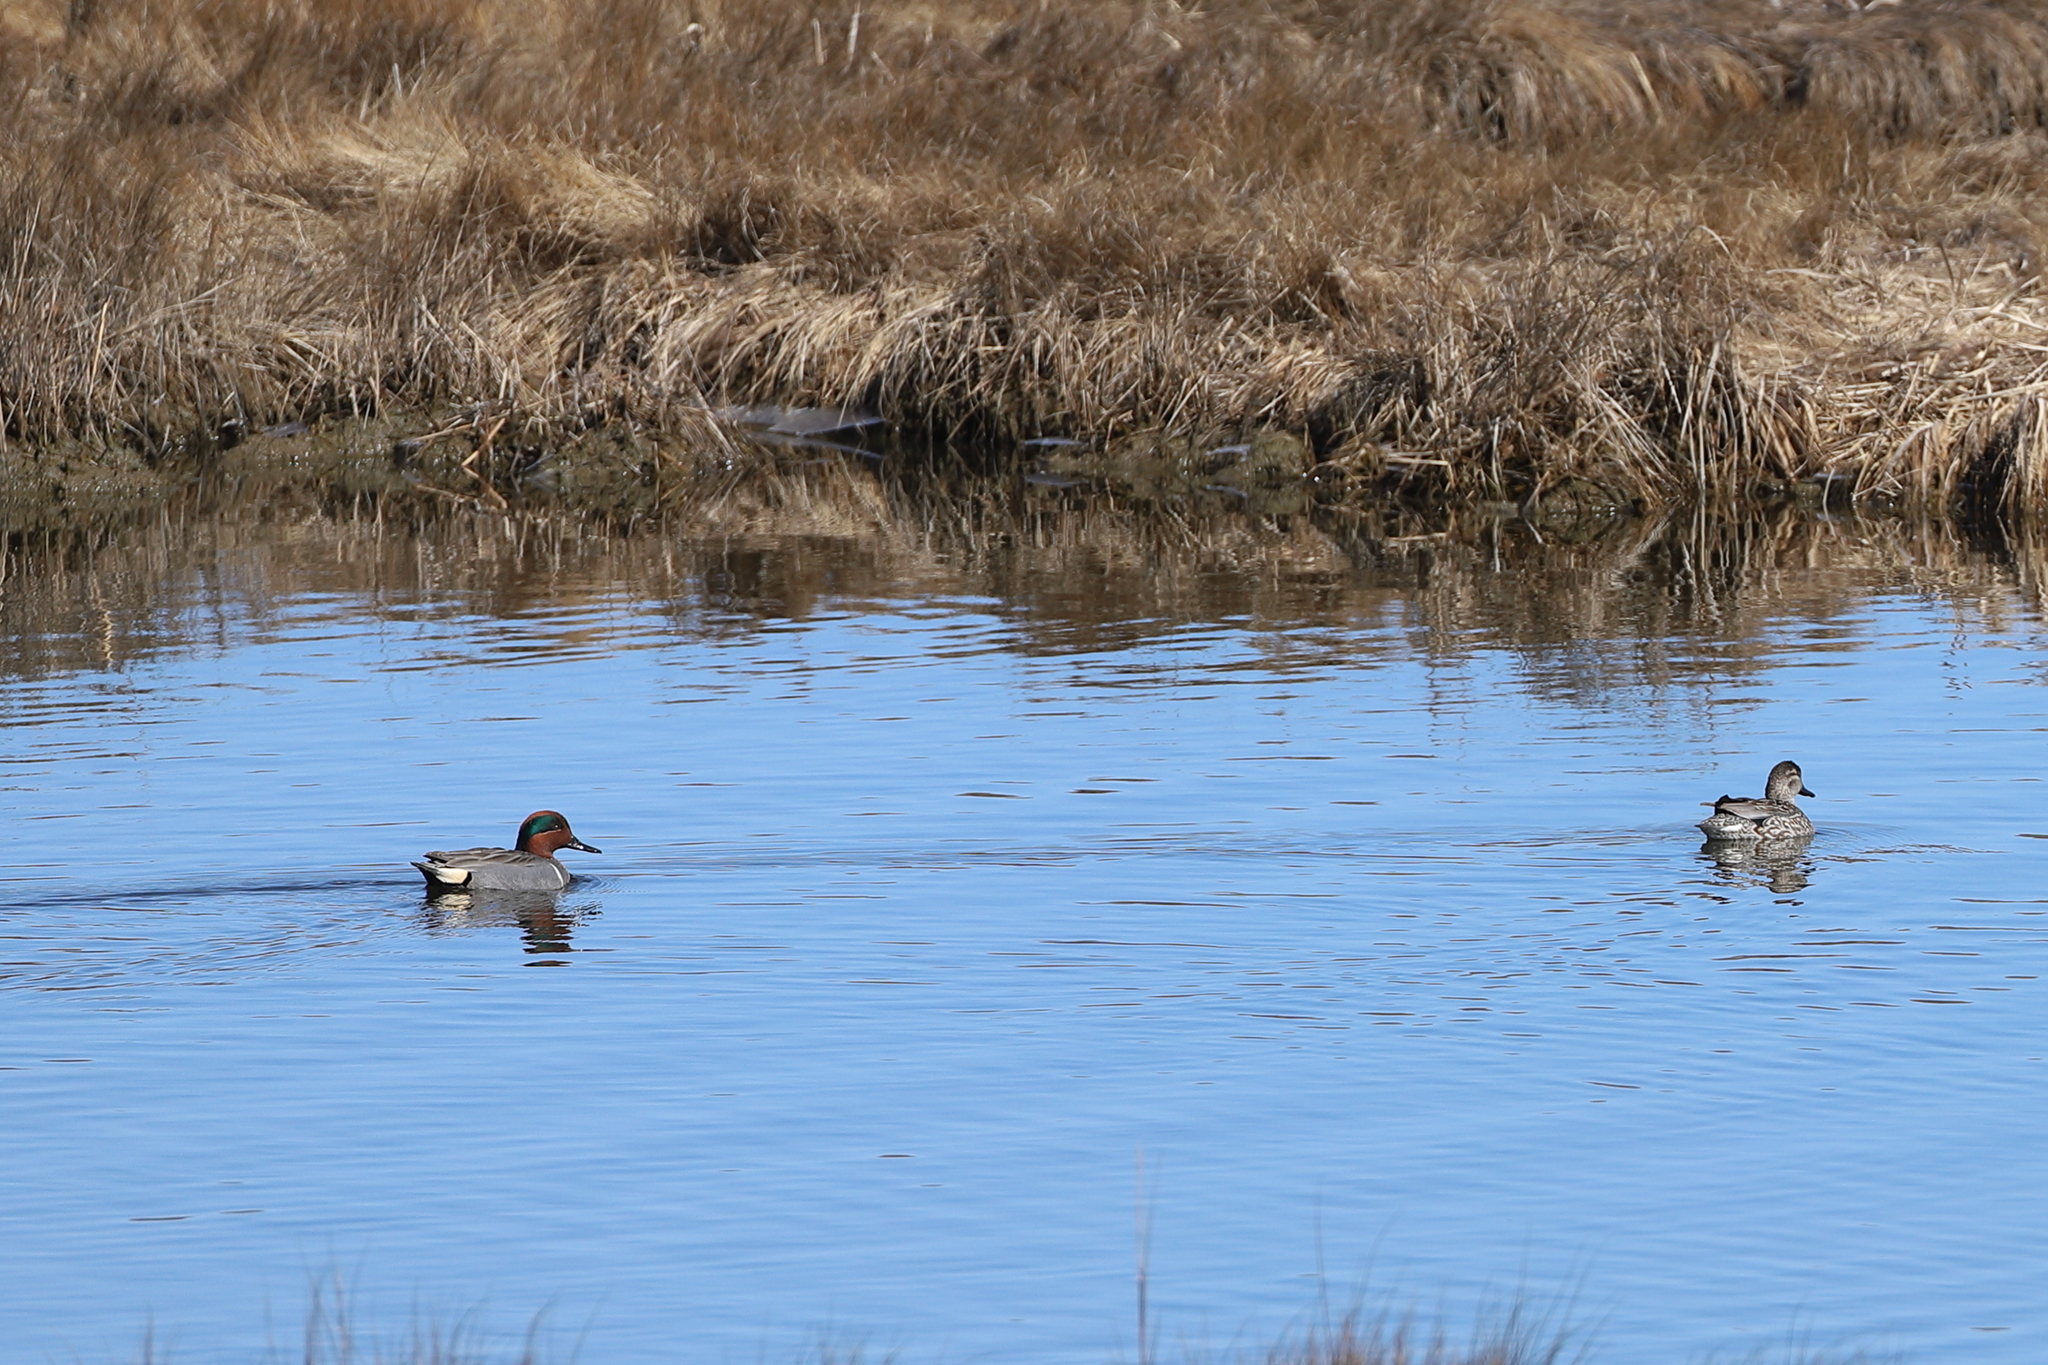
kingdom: Animalia
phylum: Chordata
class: Aves
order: Anseriformes
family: Anatidae
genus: Anas
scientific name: Anas crecca
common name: Eurasian teal
